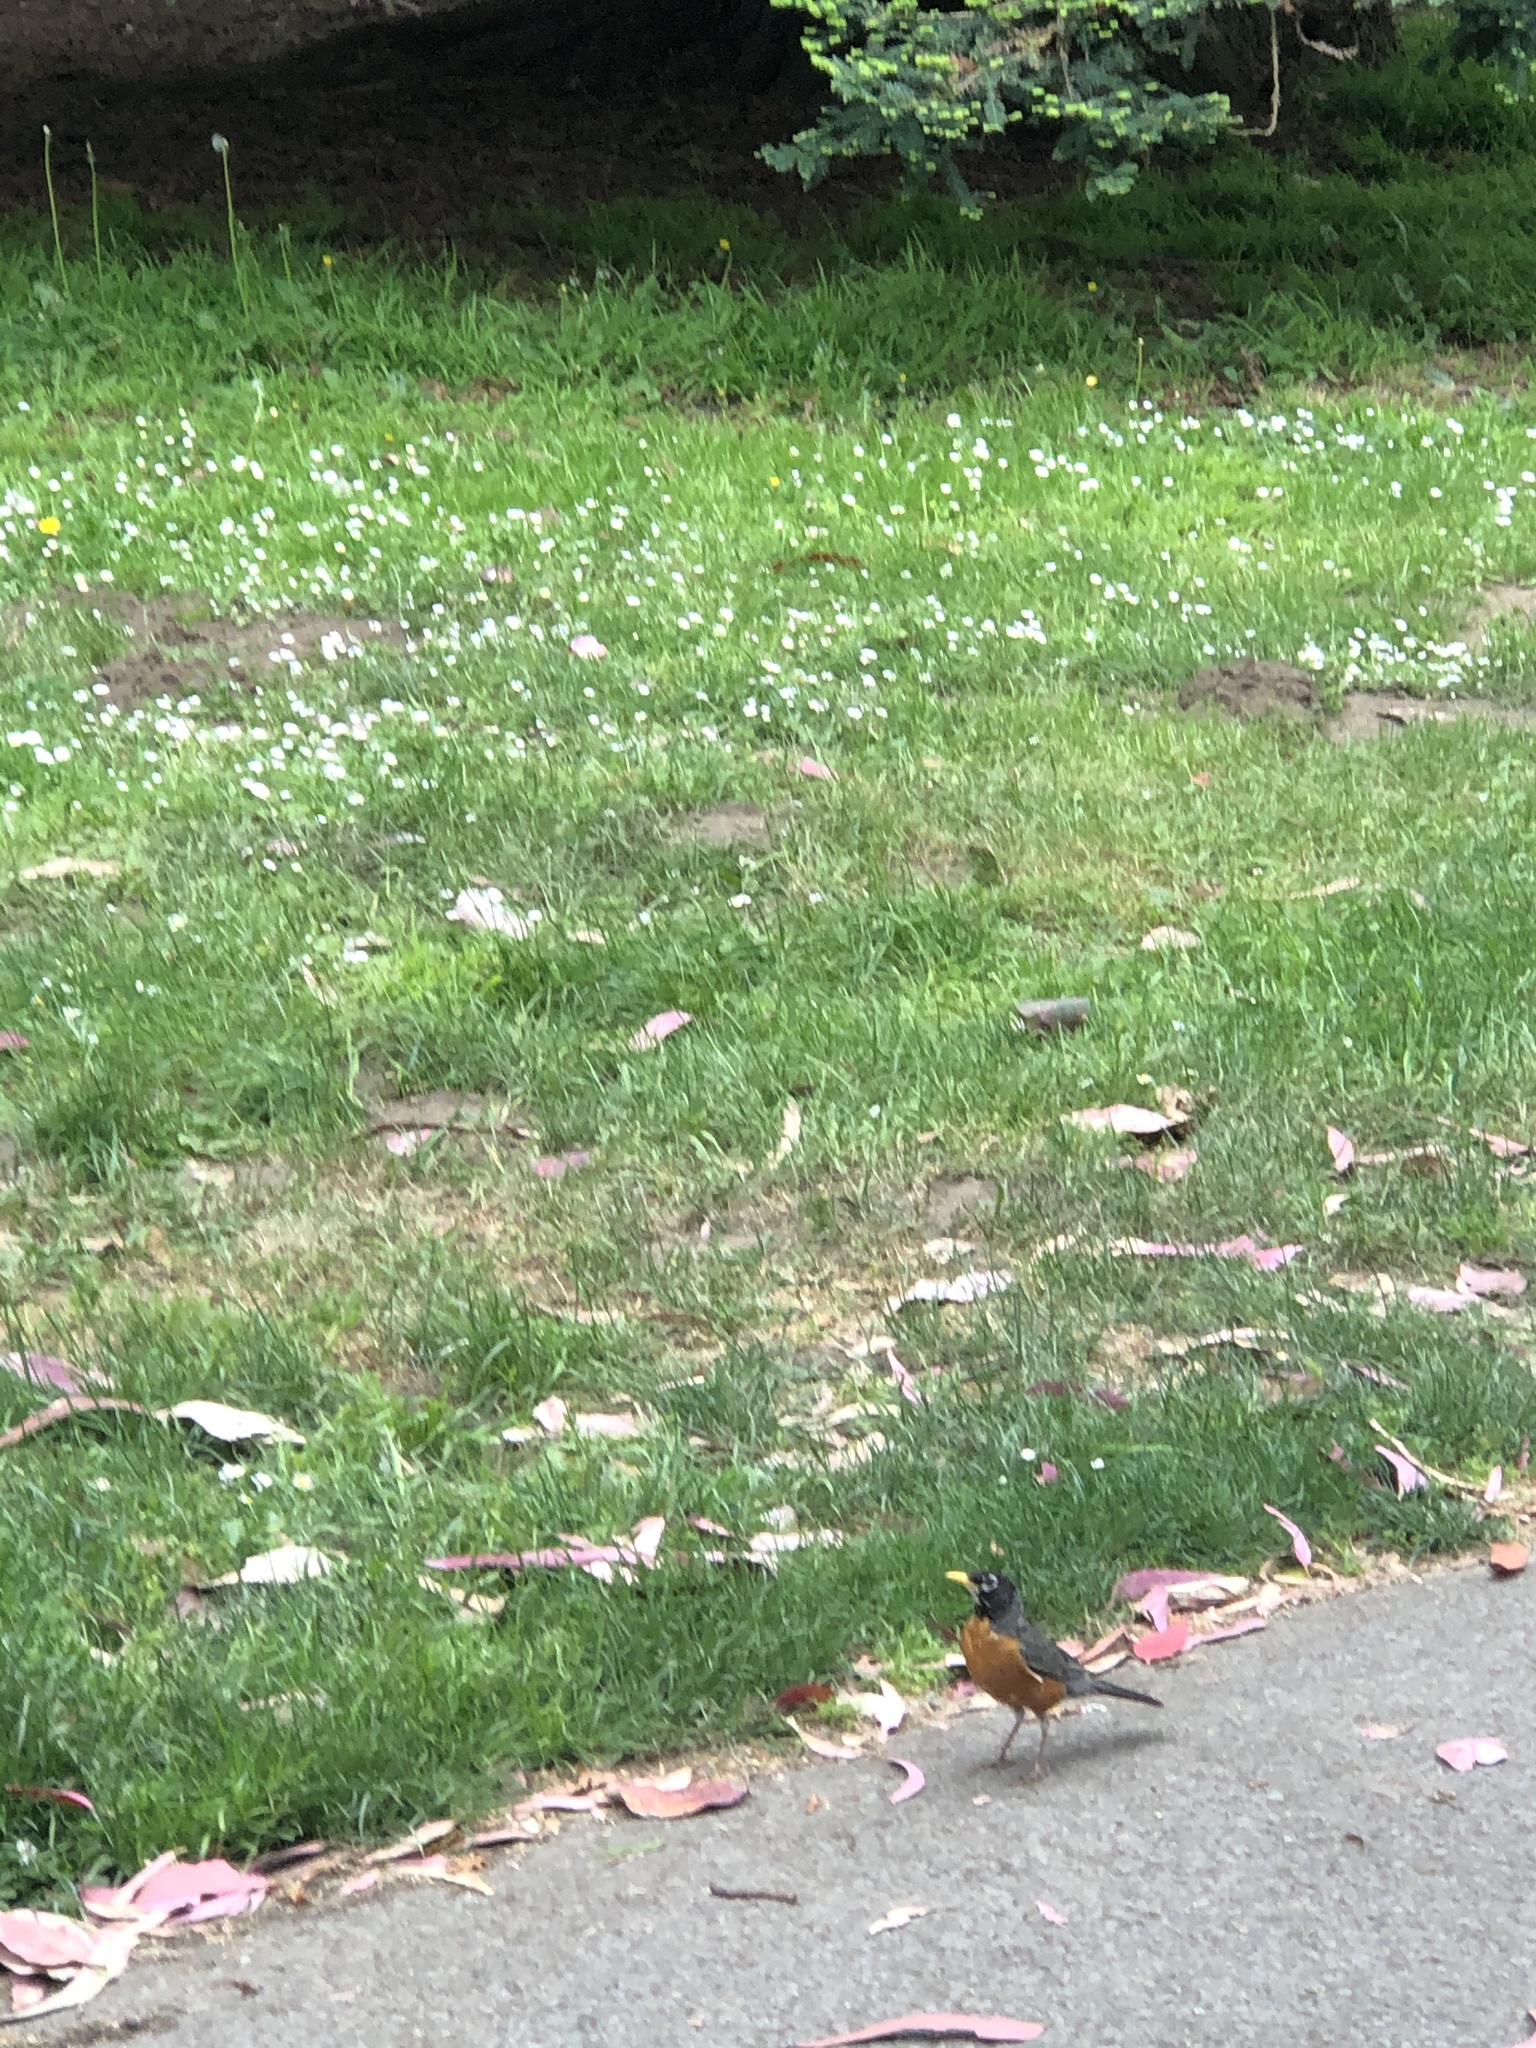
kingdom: Animalia
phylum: Chordata
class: Aves
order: Passeriformes
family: Turdidae
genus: Turdus
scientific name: Turdus migratorius
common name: American robin
